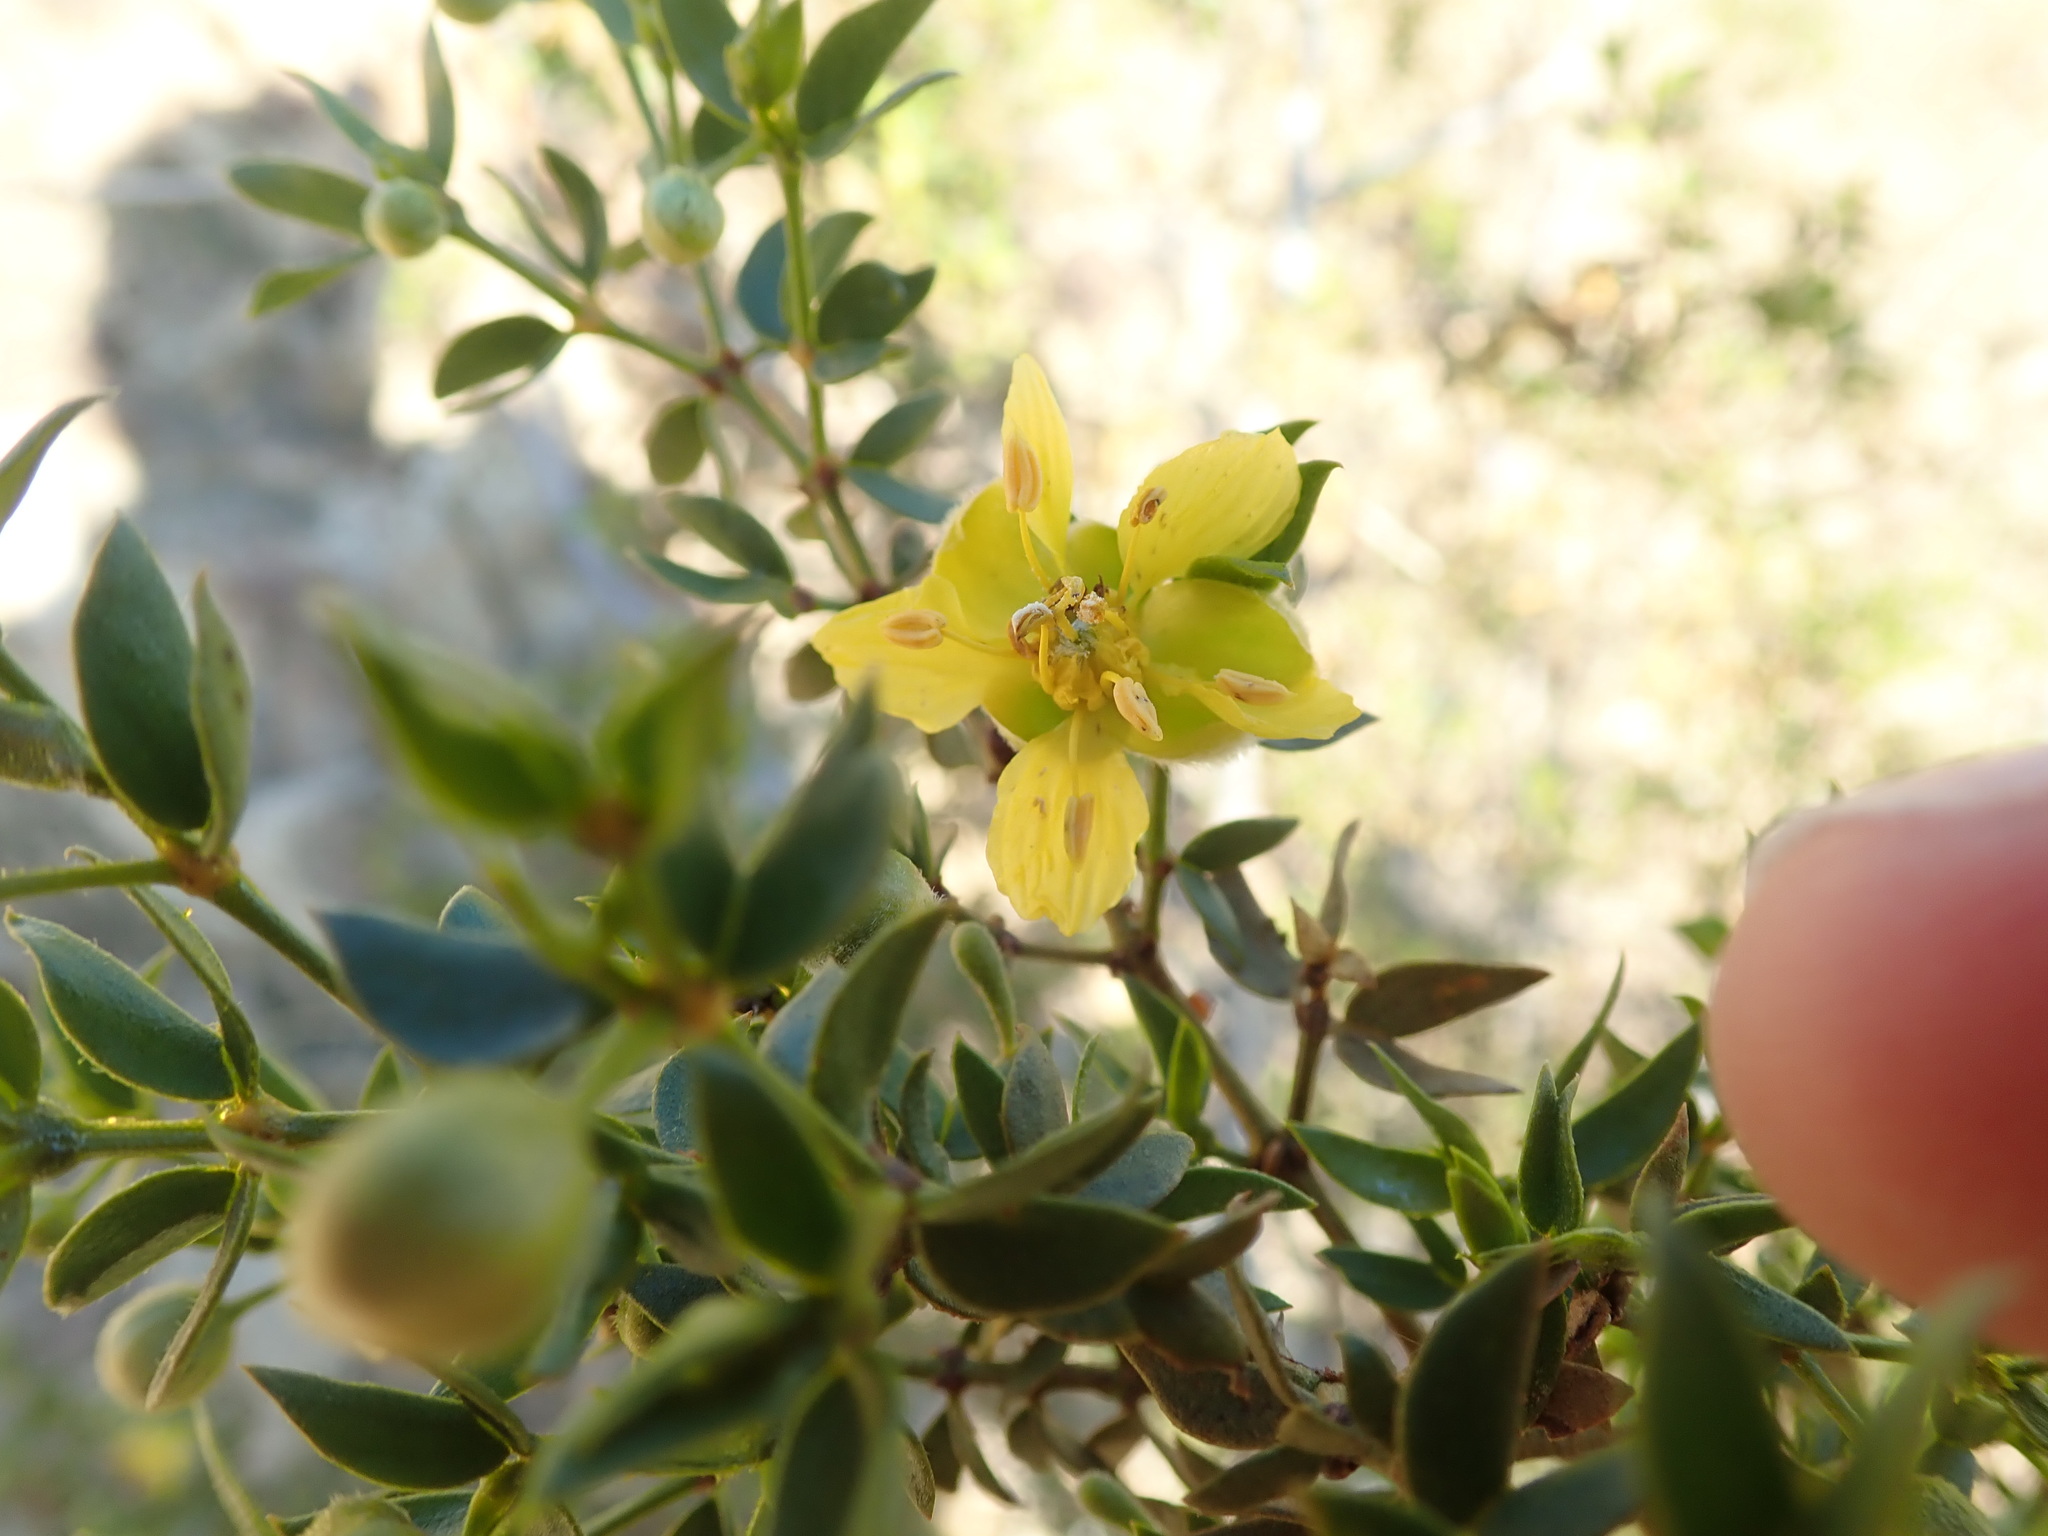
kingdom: Plantae
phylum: Tracheophyta
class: Magnoliopsida
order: Zygophyllales
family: Zygophyllaceae
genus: Larrea
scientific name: Larrea tridentata
